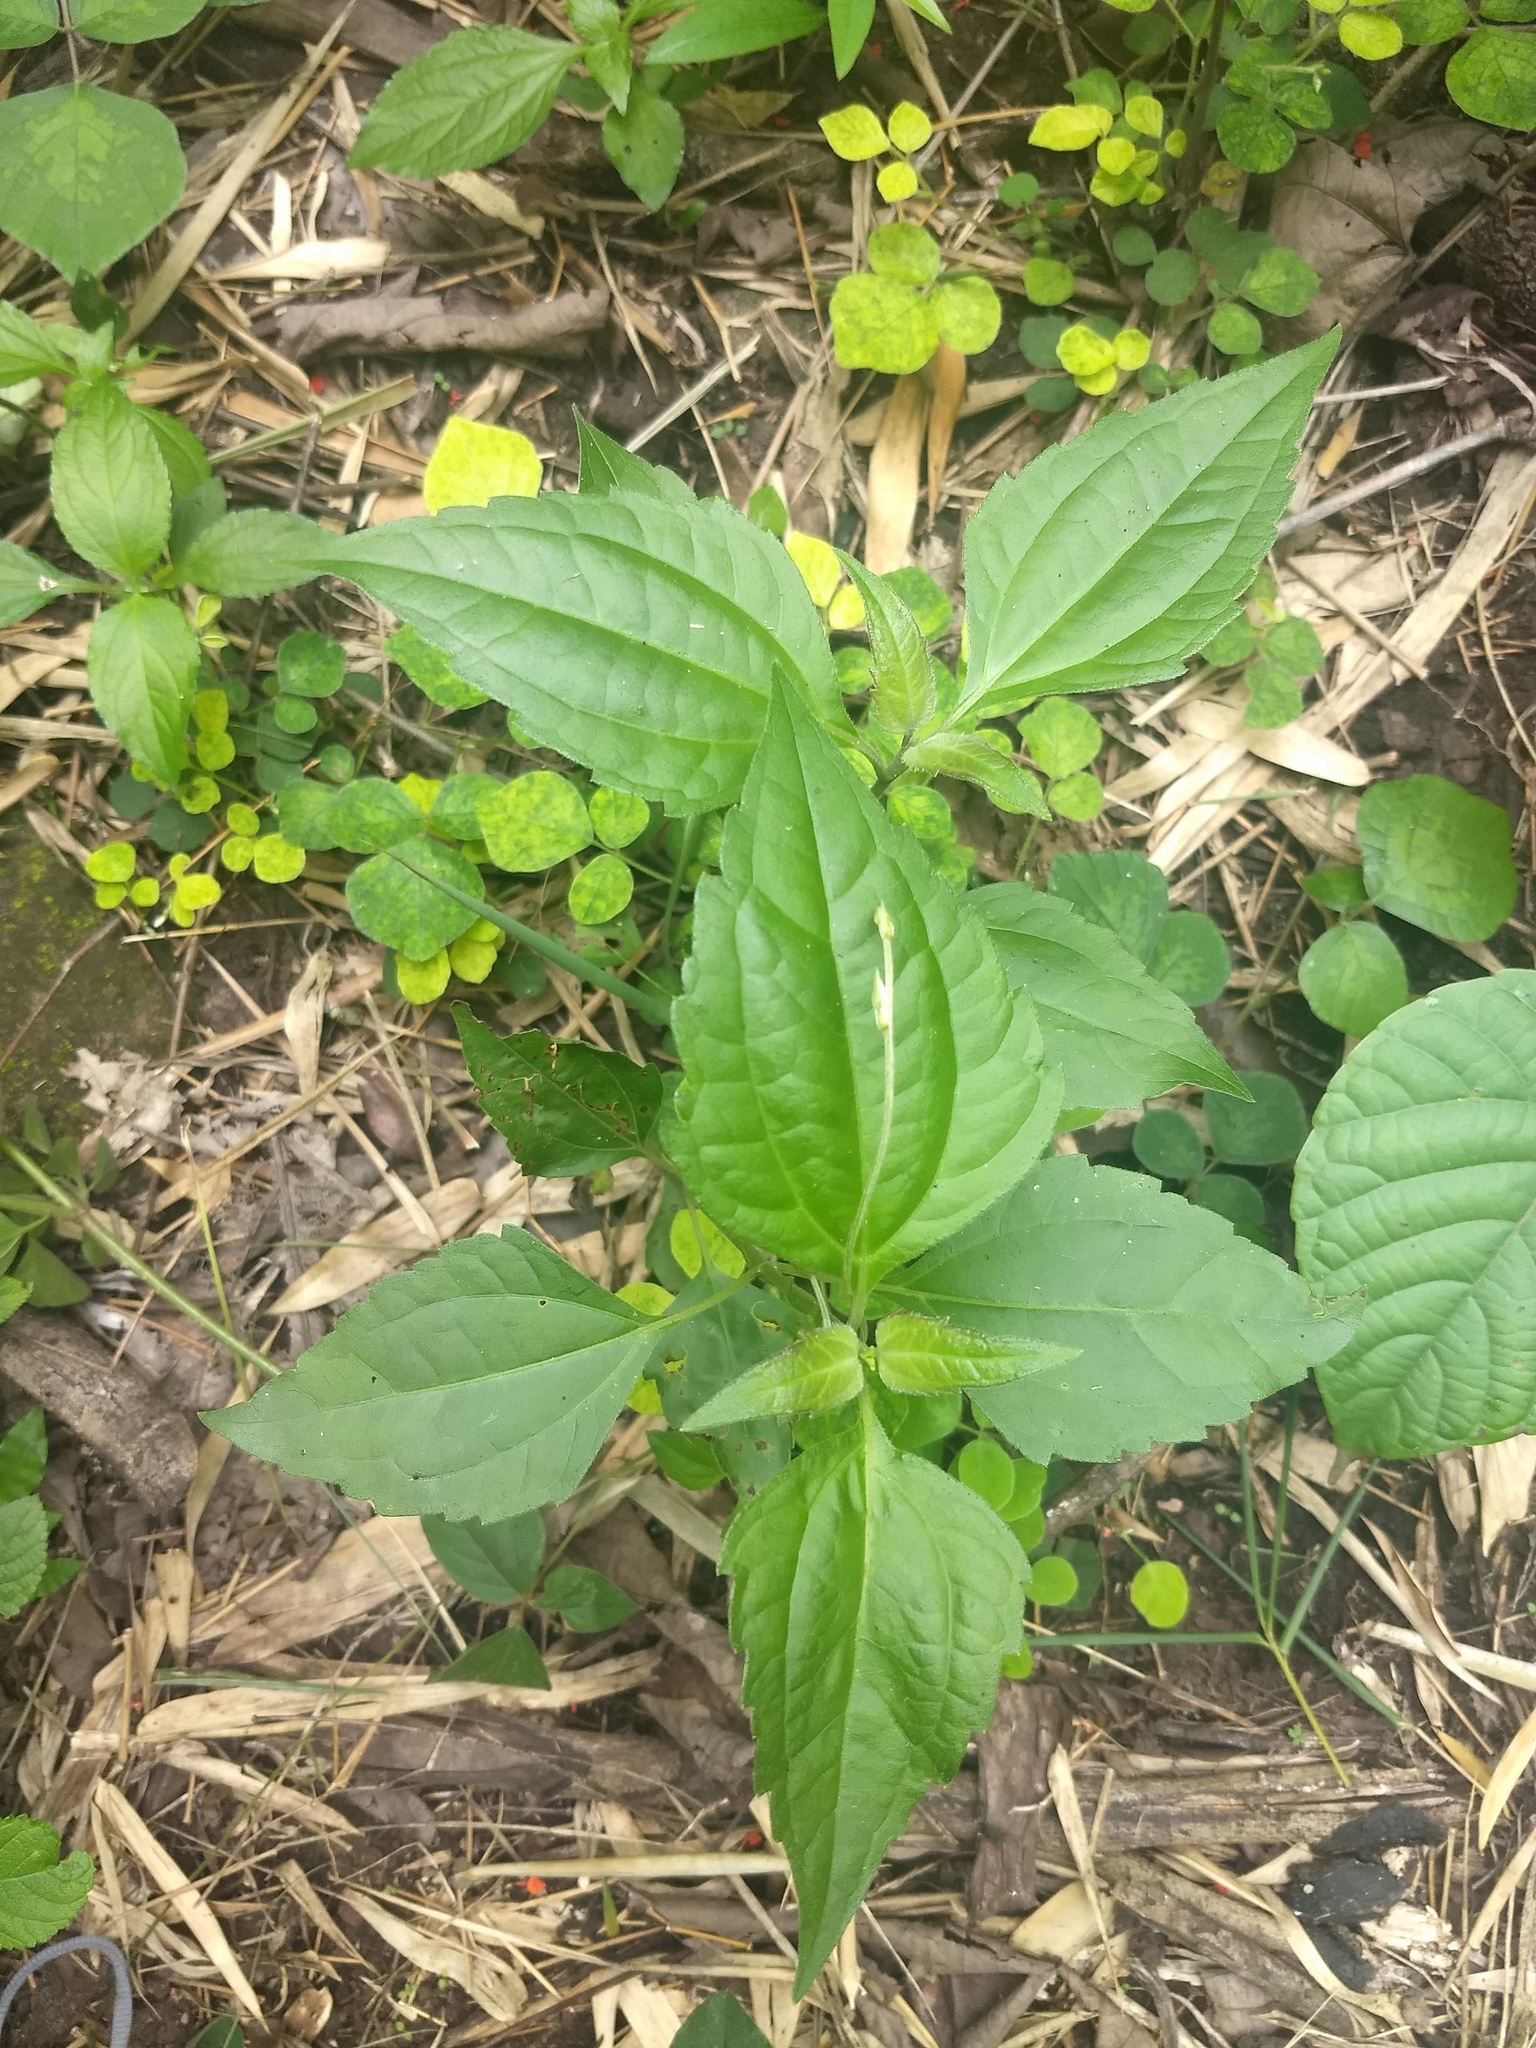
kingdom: Plantae
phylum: Tracheophyta
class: Magnoliopsida
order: Asterales
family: Asteraceae
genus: Chromolaena
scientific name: Chromolaena odorata
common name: Siamweed
